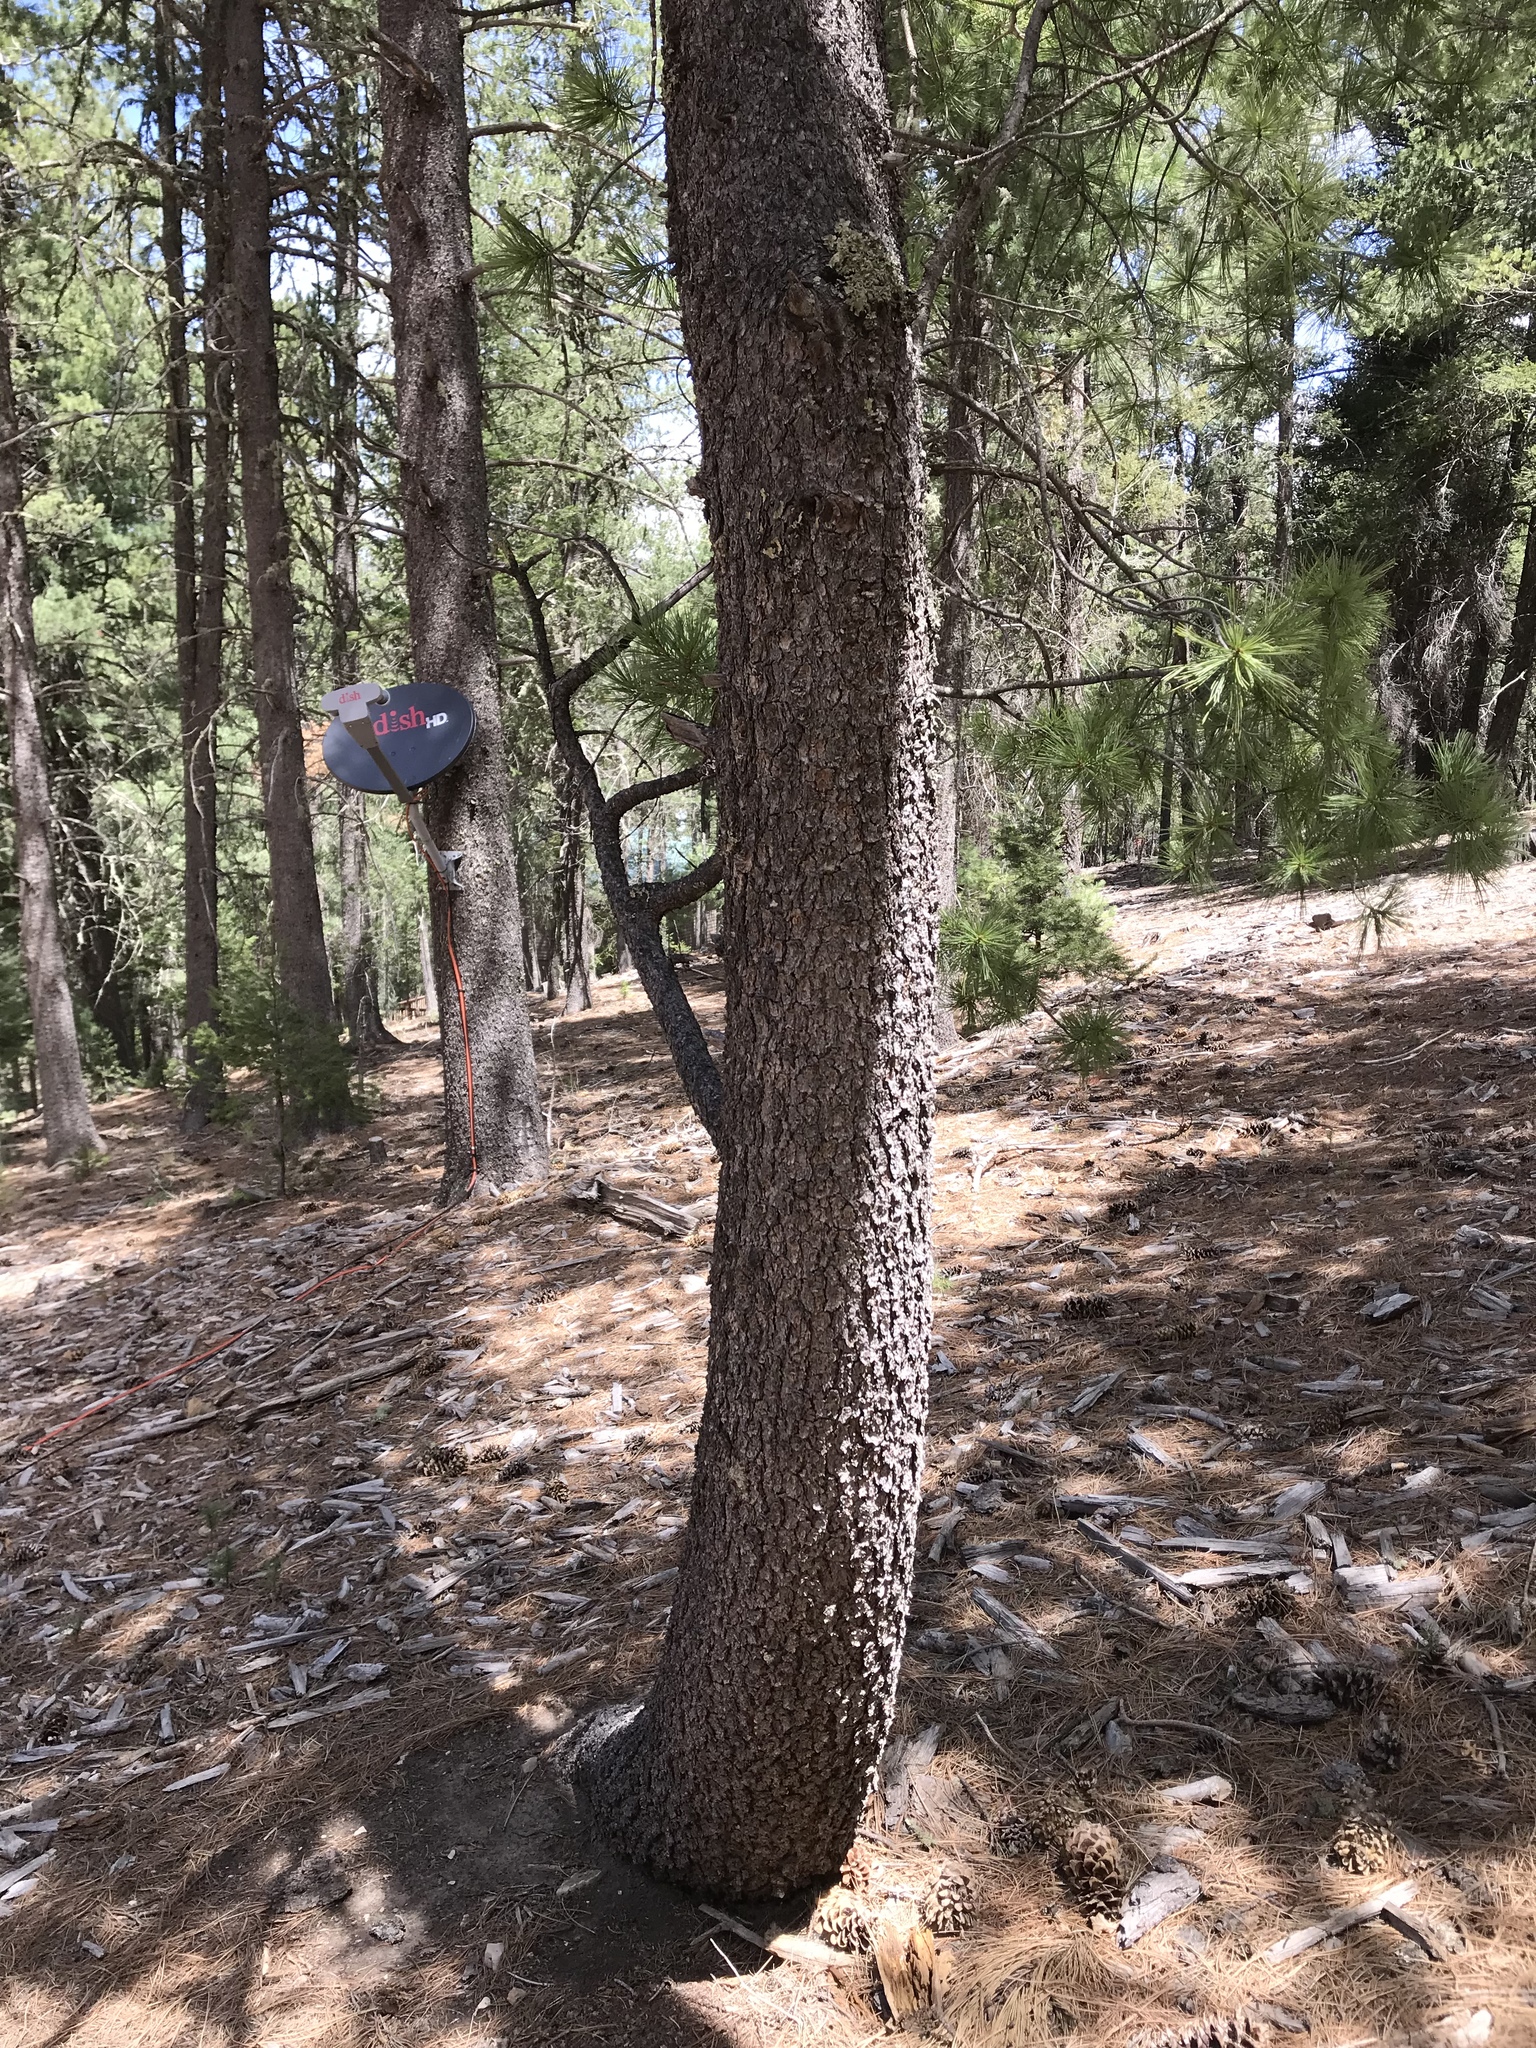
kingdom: Plantae
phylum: Tracheophyta
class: Pinopsida
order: Pinales
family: Pinaceae
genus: Pinus
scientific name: Pinus strobiformis
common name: Southwestern white pine
